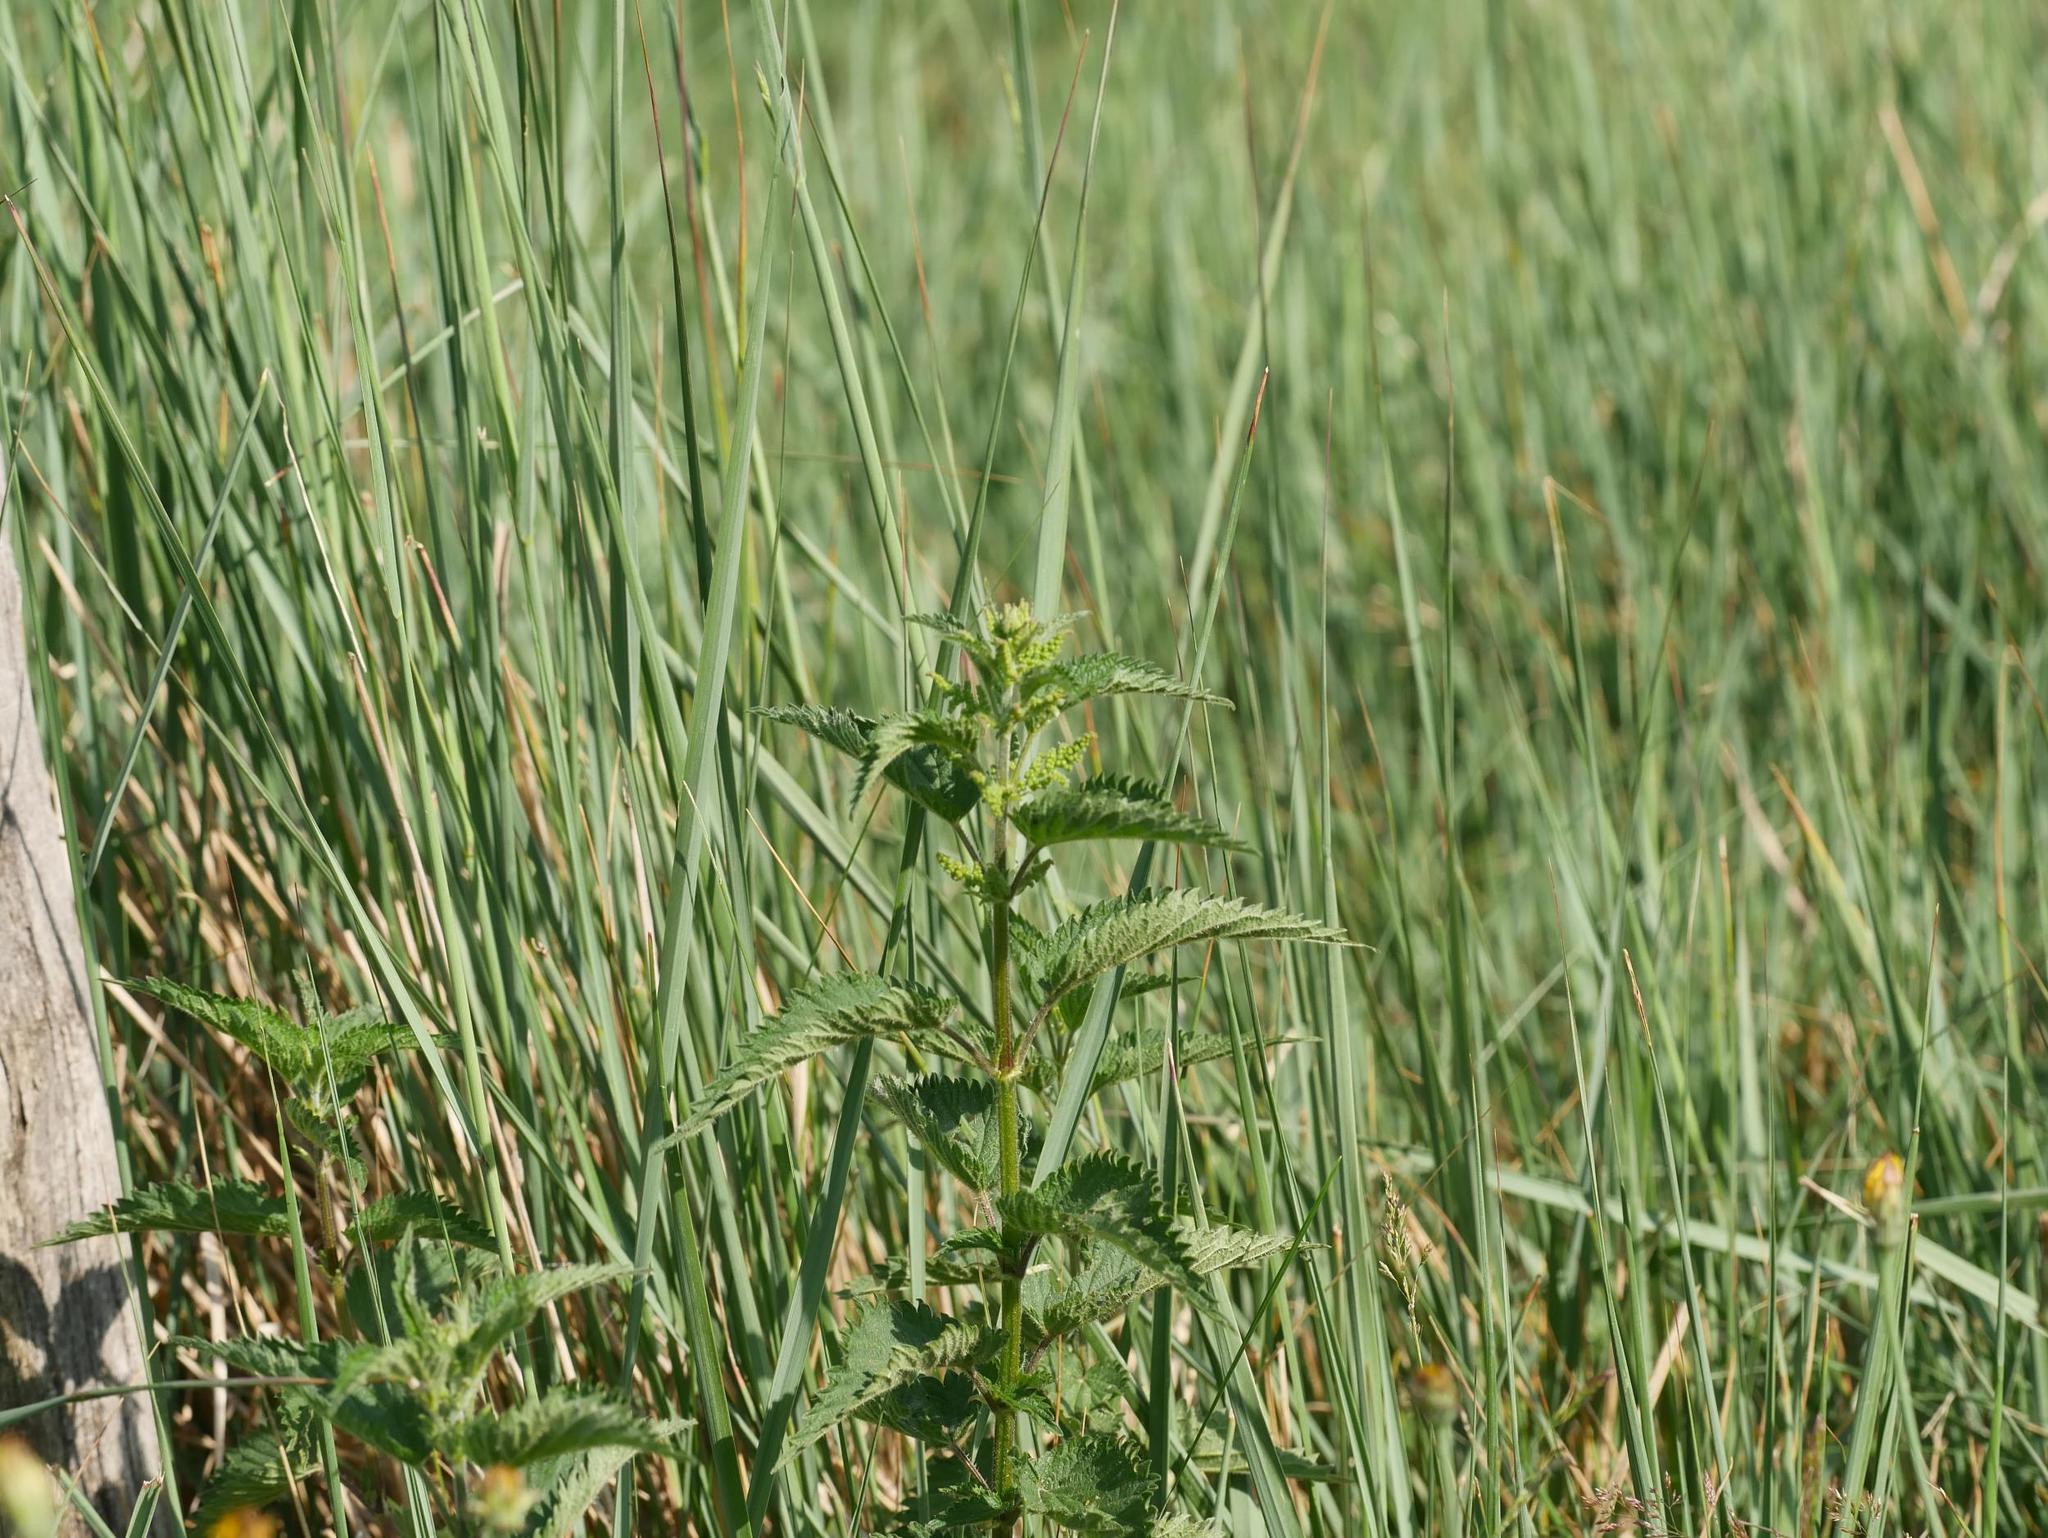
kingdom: Plantae
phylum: Tracheophyta
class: Magnoliopsida
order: Rosales
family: Urticaceae
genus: Urtica
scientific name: Urtica dioica
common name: Common nettle
